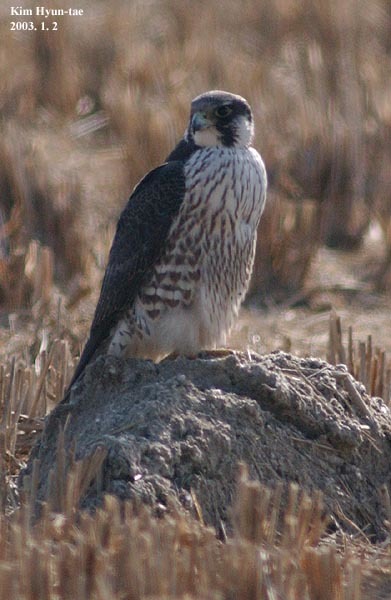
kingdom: Animalia
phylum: Chordata
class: Aves
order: Falconiformes
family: Falconidae
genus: Falco
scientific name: Falco peregrinus
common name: Peregrine falcon
